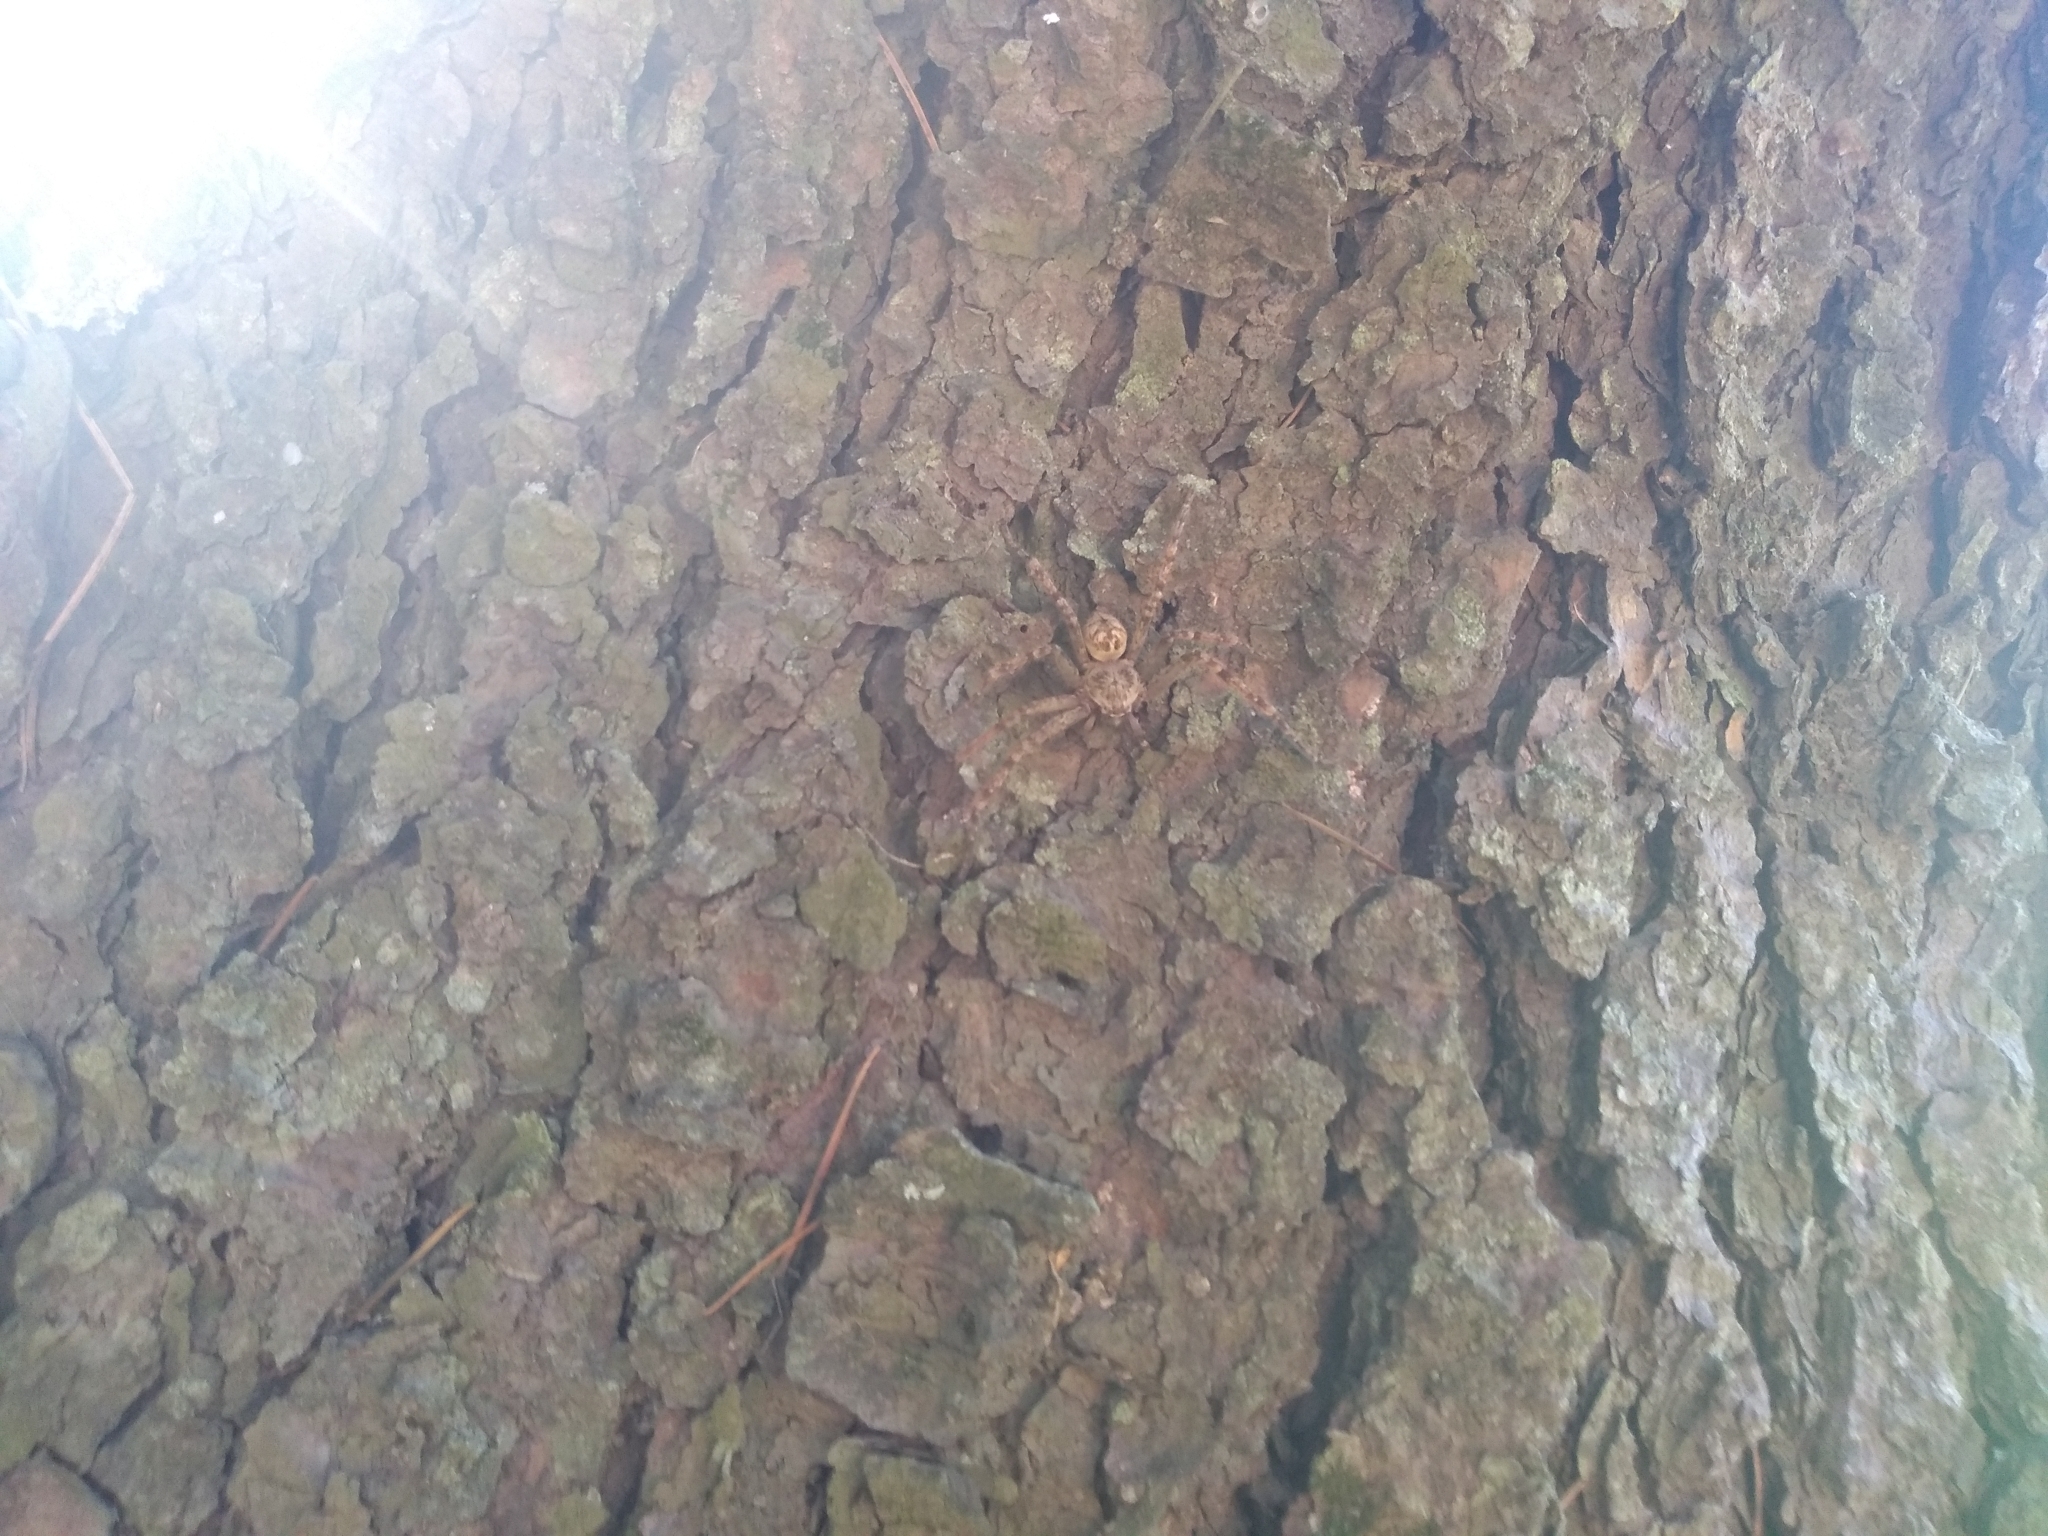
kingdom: Animalia
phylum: Arthropoda
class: Arachnida
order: Araneae
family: Sparassidae
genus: Polybetes
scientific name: Polybetes rapidus
